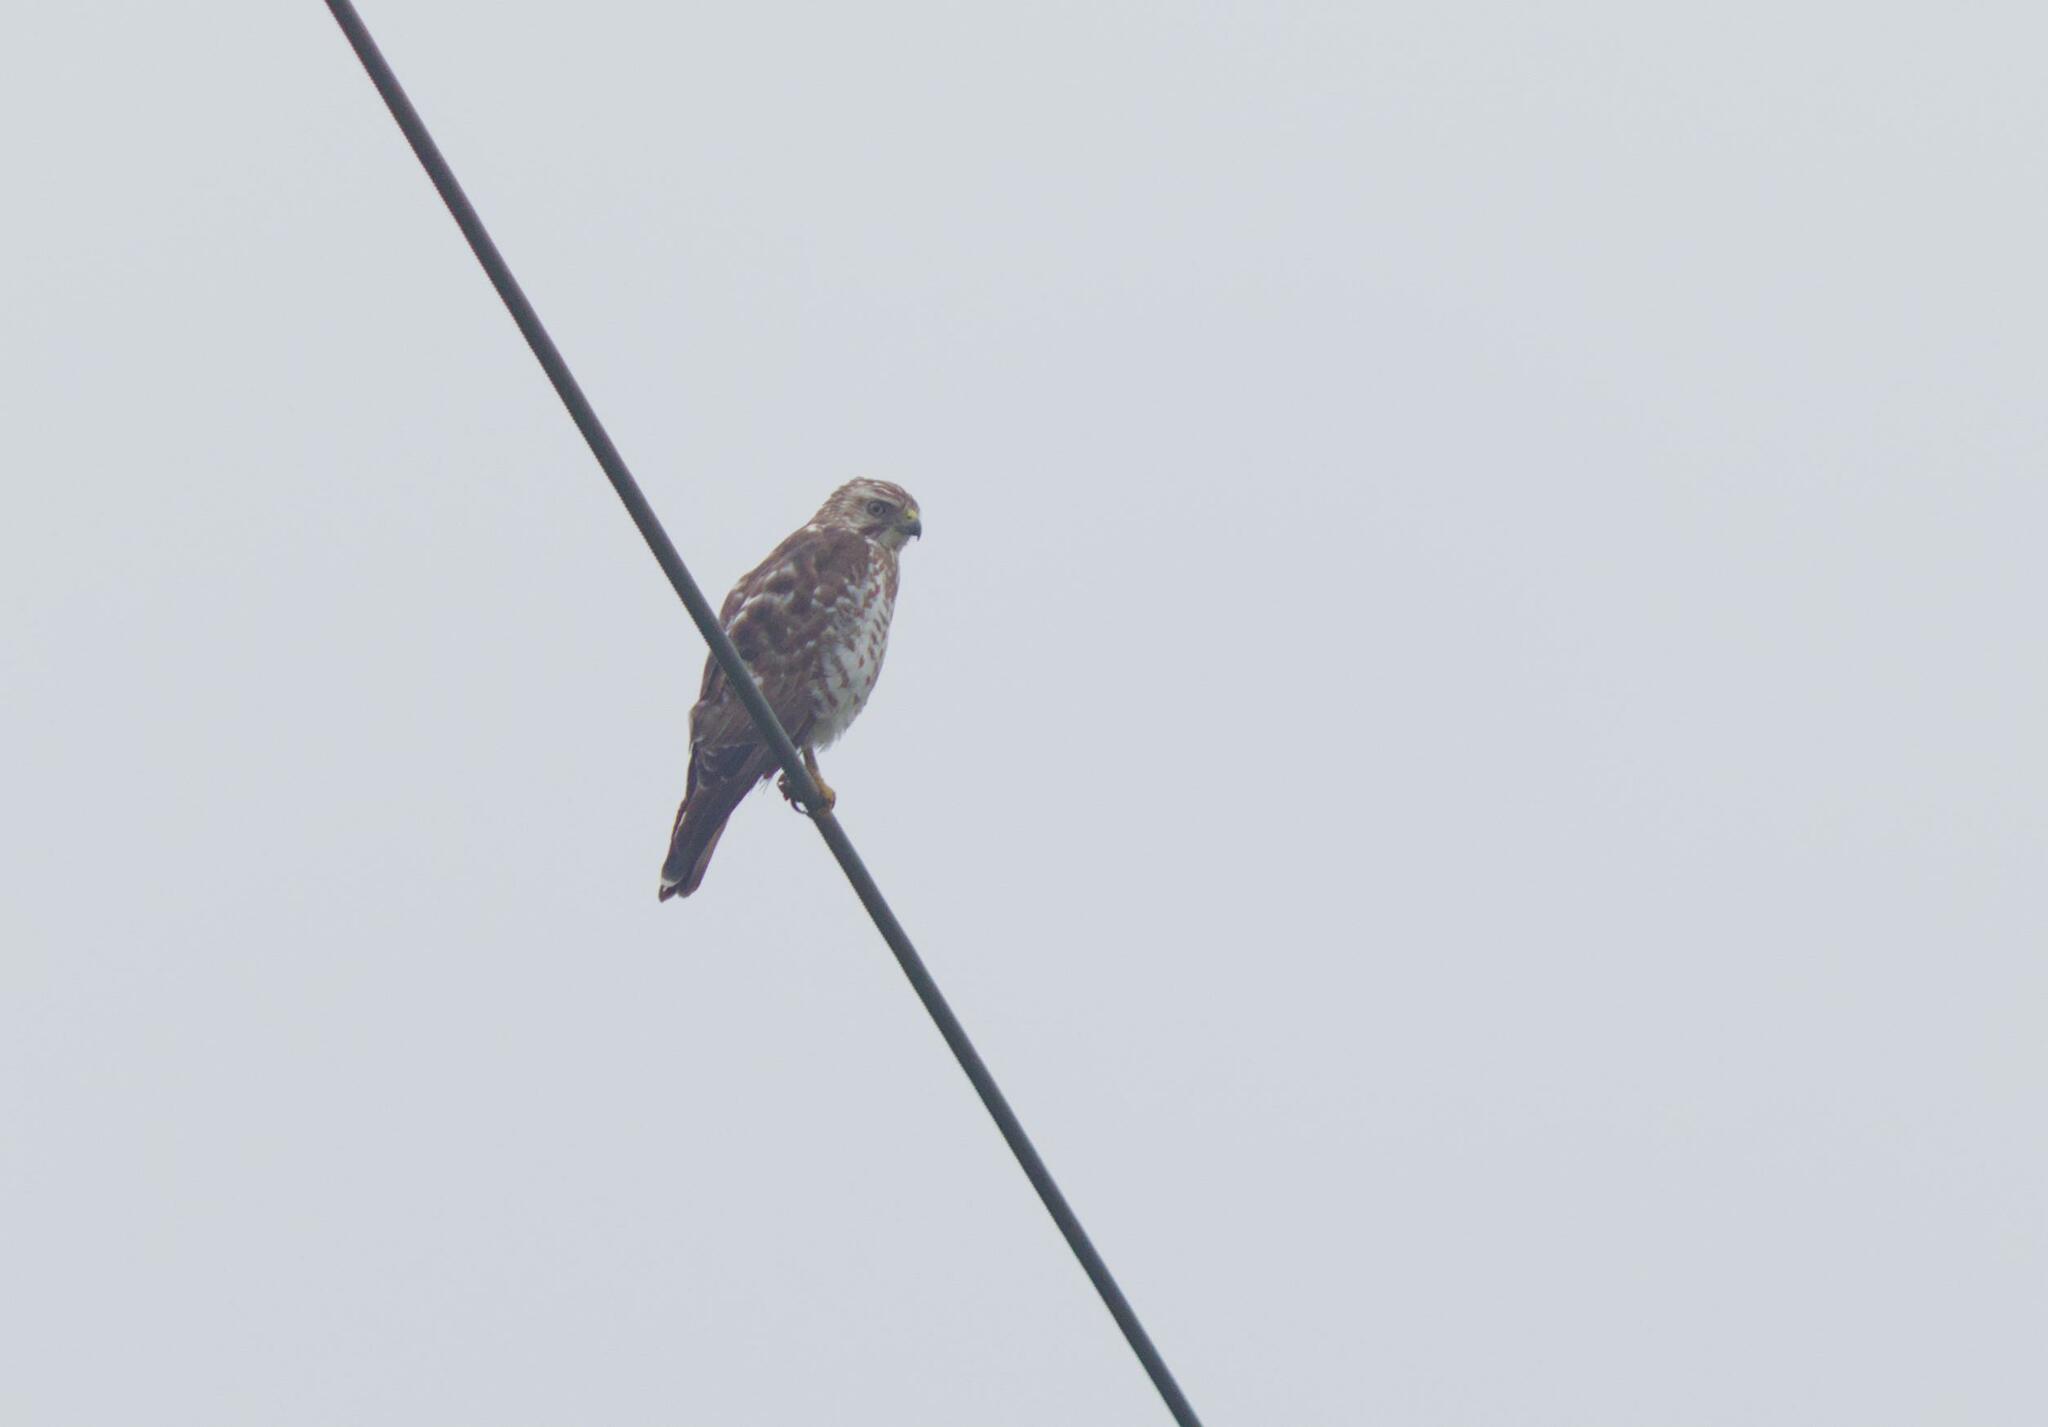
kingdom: Animalia
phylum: Chordata
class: Aves
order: Accipitriformes
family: Accipitridae
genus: Buteo
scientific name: Buteo platypterus
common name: Broad-winged hawk
